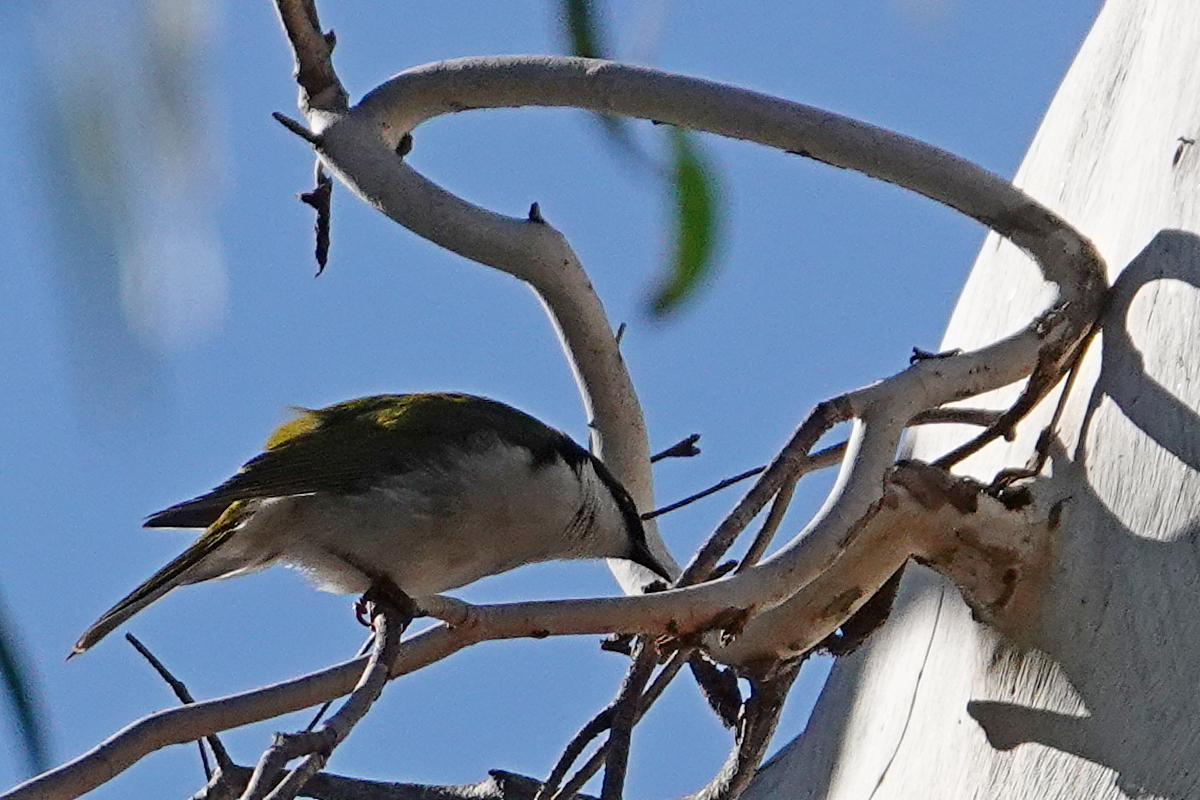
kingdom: Animalia
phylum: Chordata
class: Aves
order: Passeriformes
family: Meliphagidae
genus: Melithreptus
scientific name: Melithreptus lunatus
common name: White-naped honeyeater
